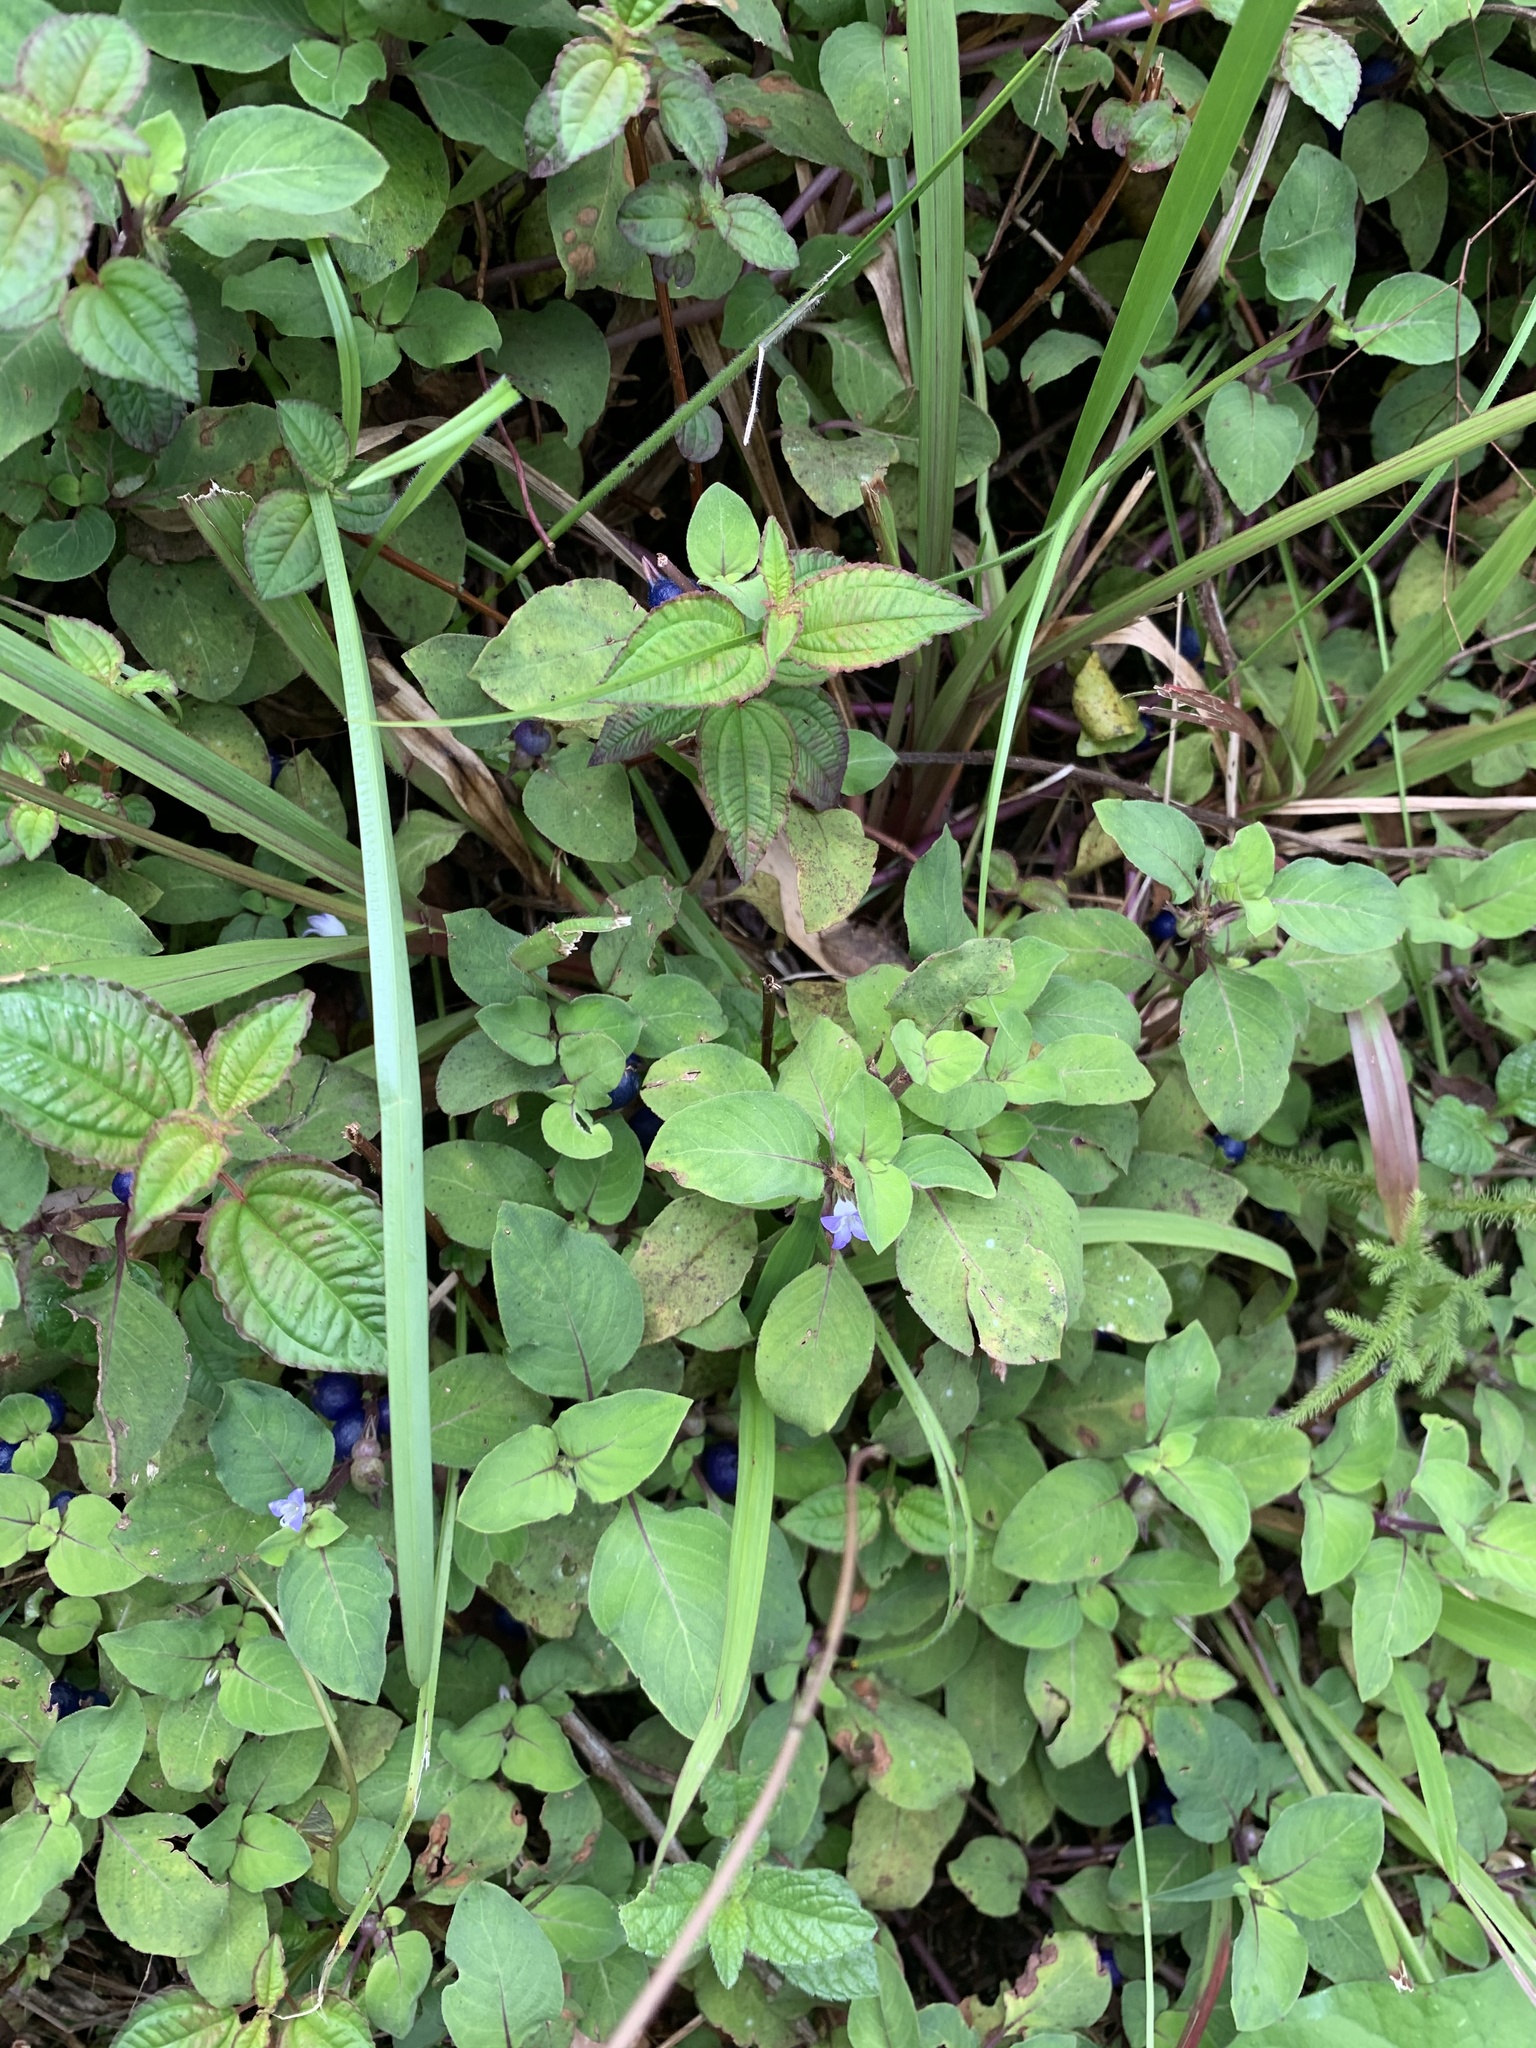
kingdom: Plantae
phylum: Tracheophyta
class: Magnoliopsida
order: Gentianales
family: Rubiaceae
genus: Coccocypselum
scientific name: Coccocypselum herbaceum
